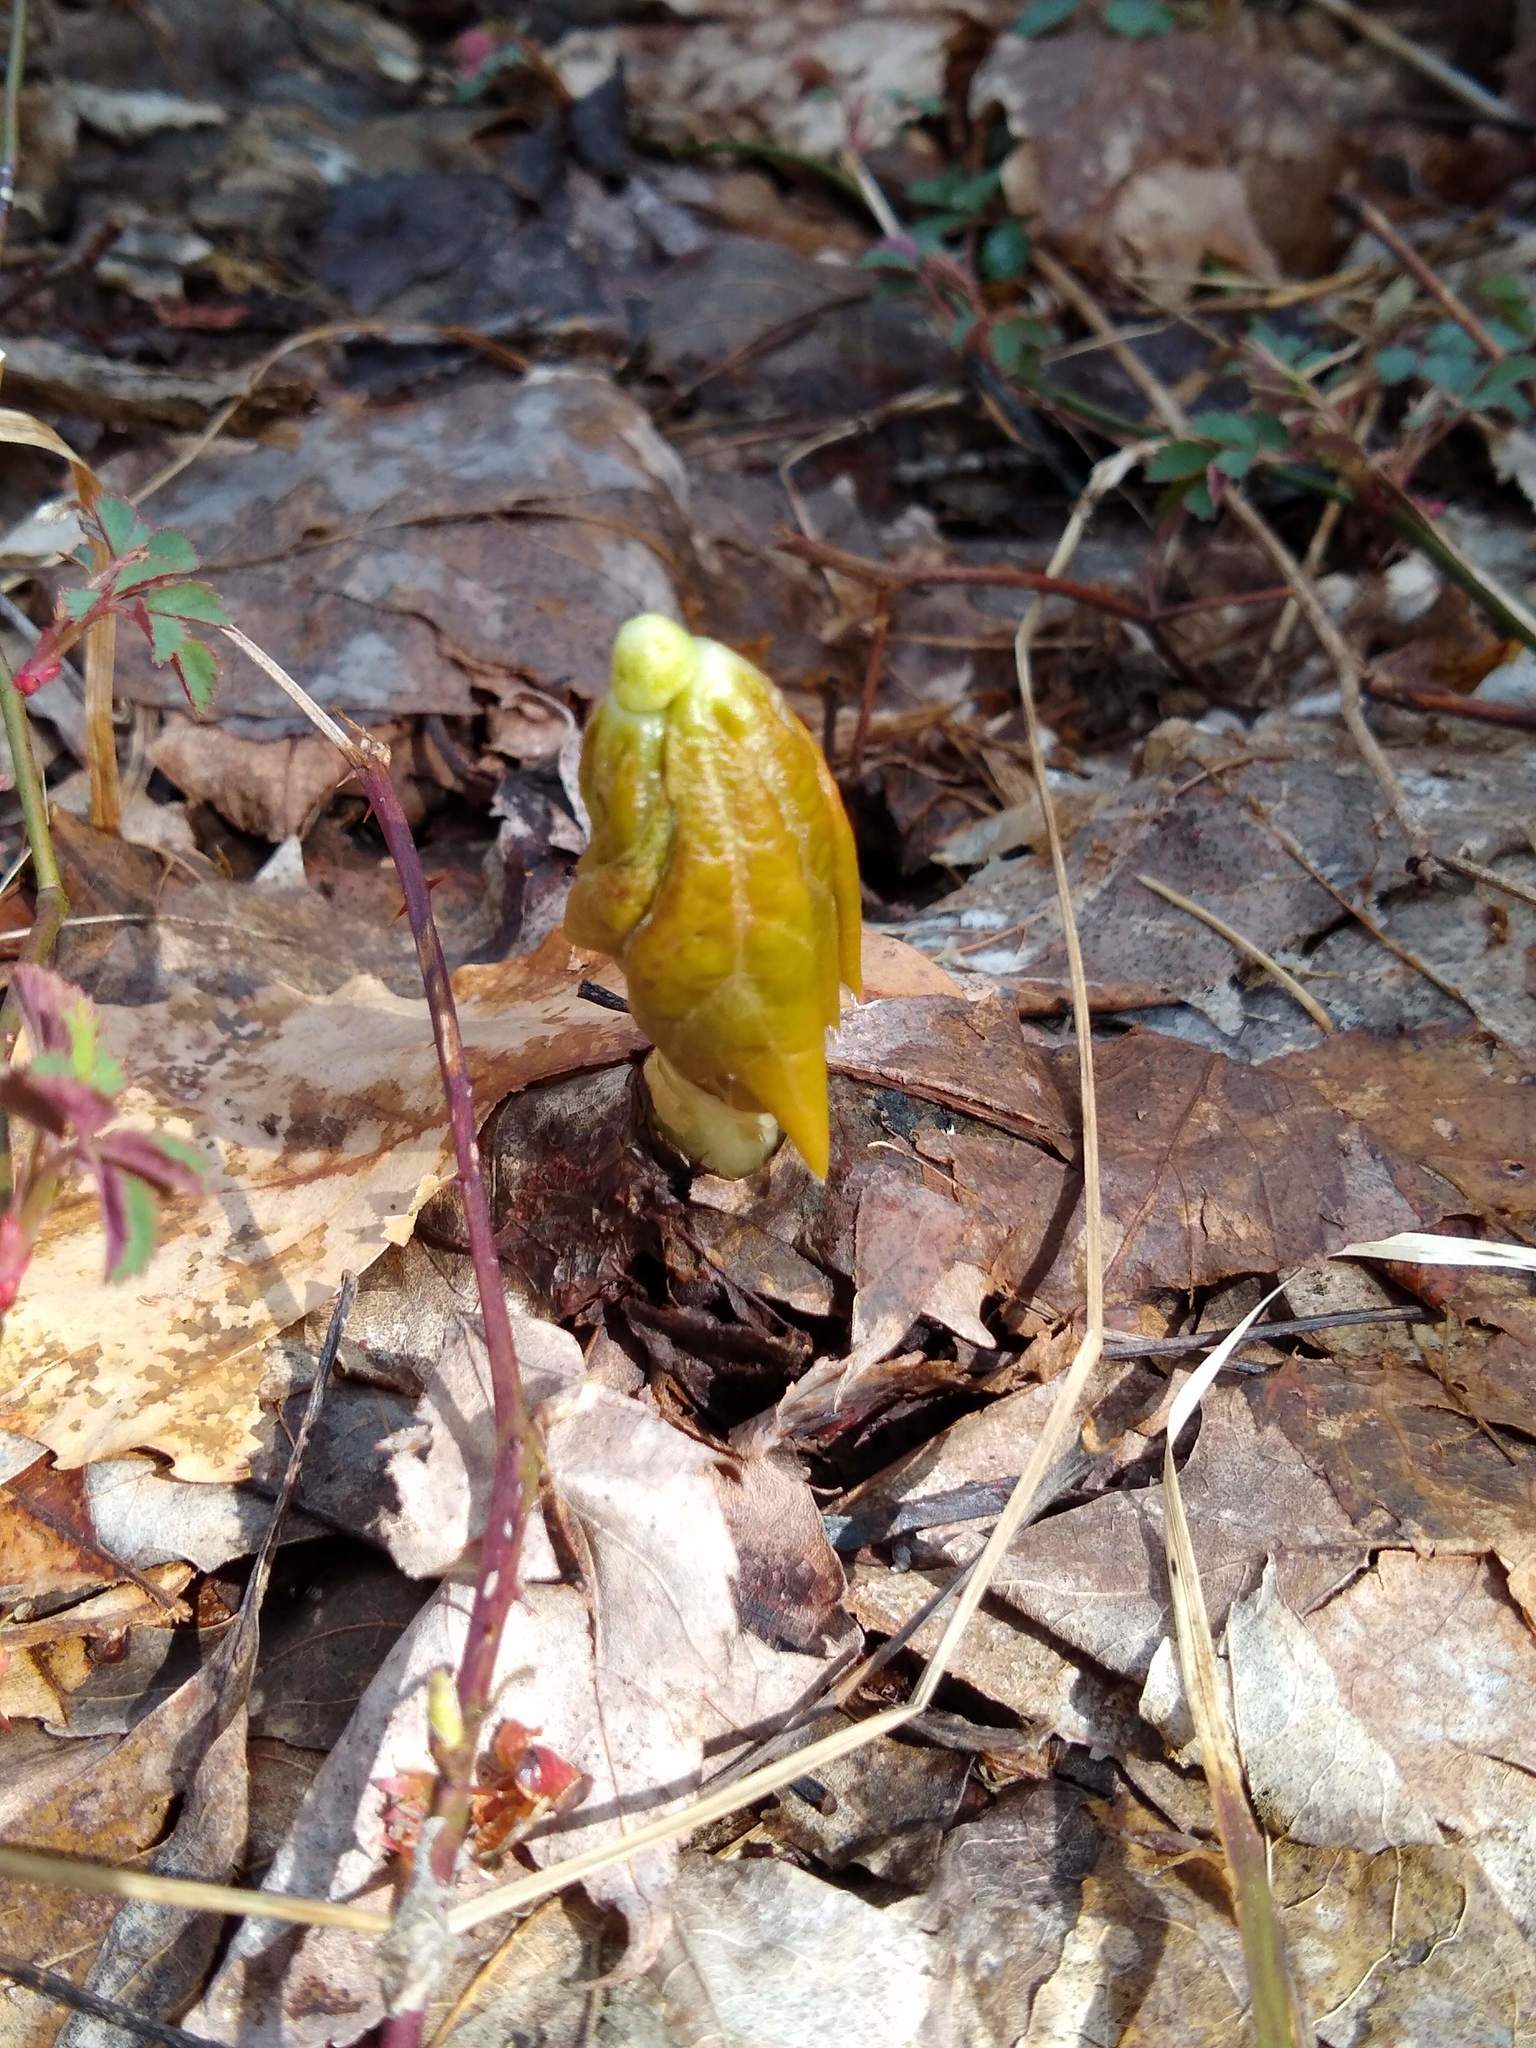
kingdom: Plantae
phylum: Tracheophyta
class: Magnoliopsida
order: Ranunculales
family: Berberidaceae
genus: Podophyllum
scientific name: Podophyllum peltatum
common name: Wild mandrake
